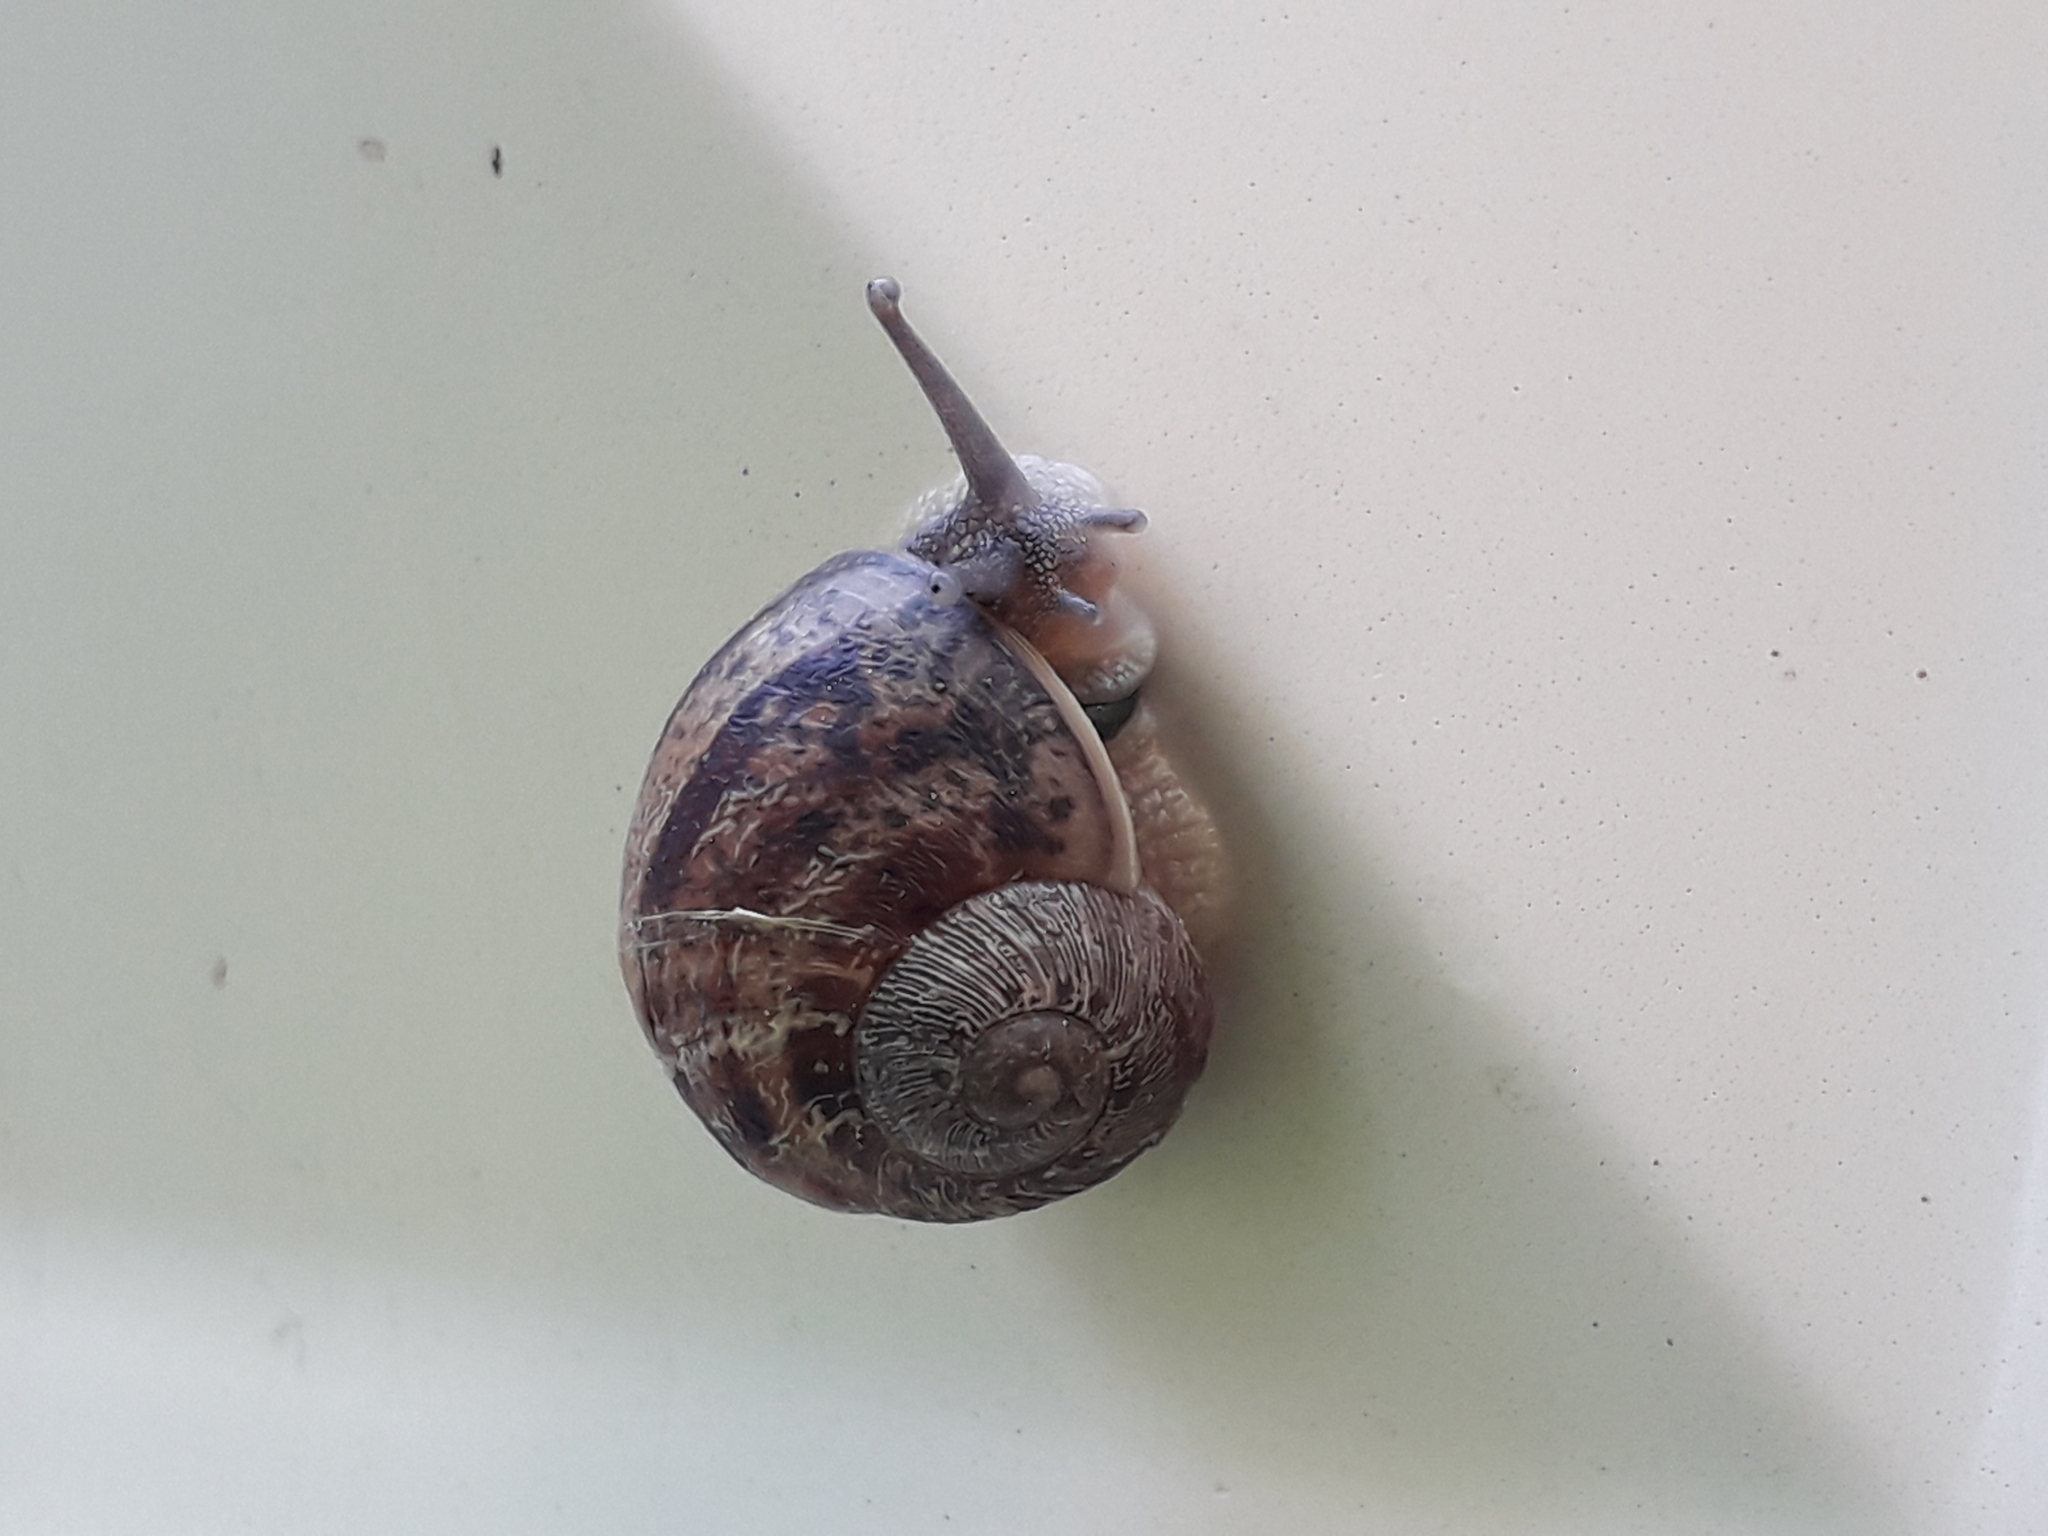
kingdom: Animalia
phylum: Mollusca
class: Gastropoda
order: Stylommatophora
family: Helicidae
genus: Cornu
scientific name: Cornu aspersum
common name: Brown garden snail
